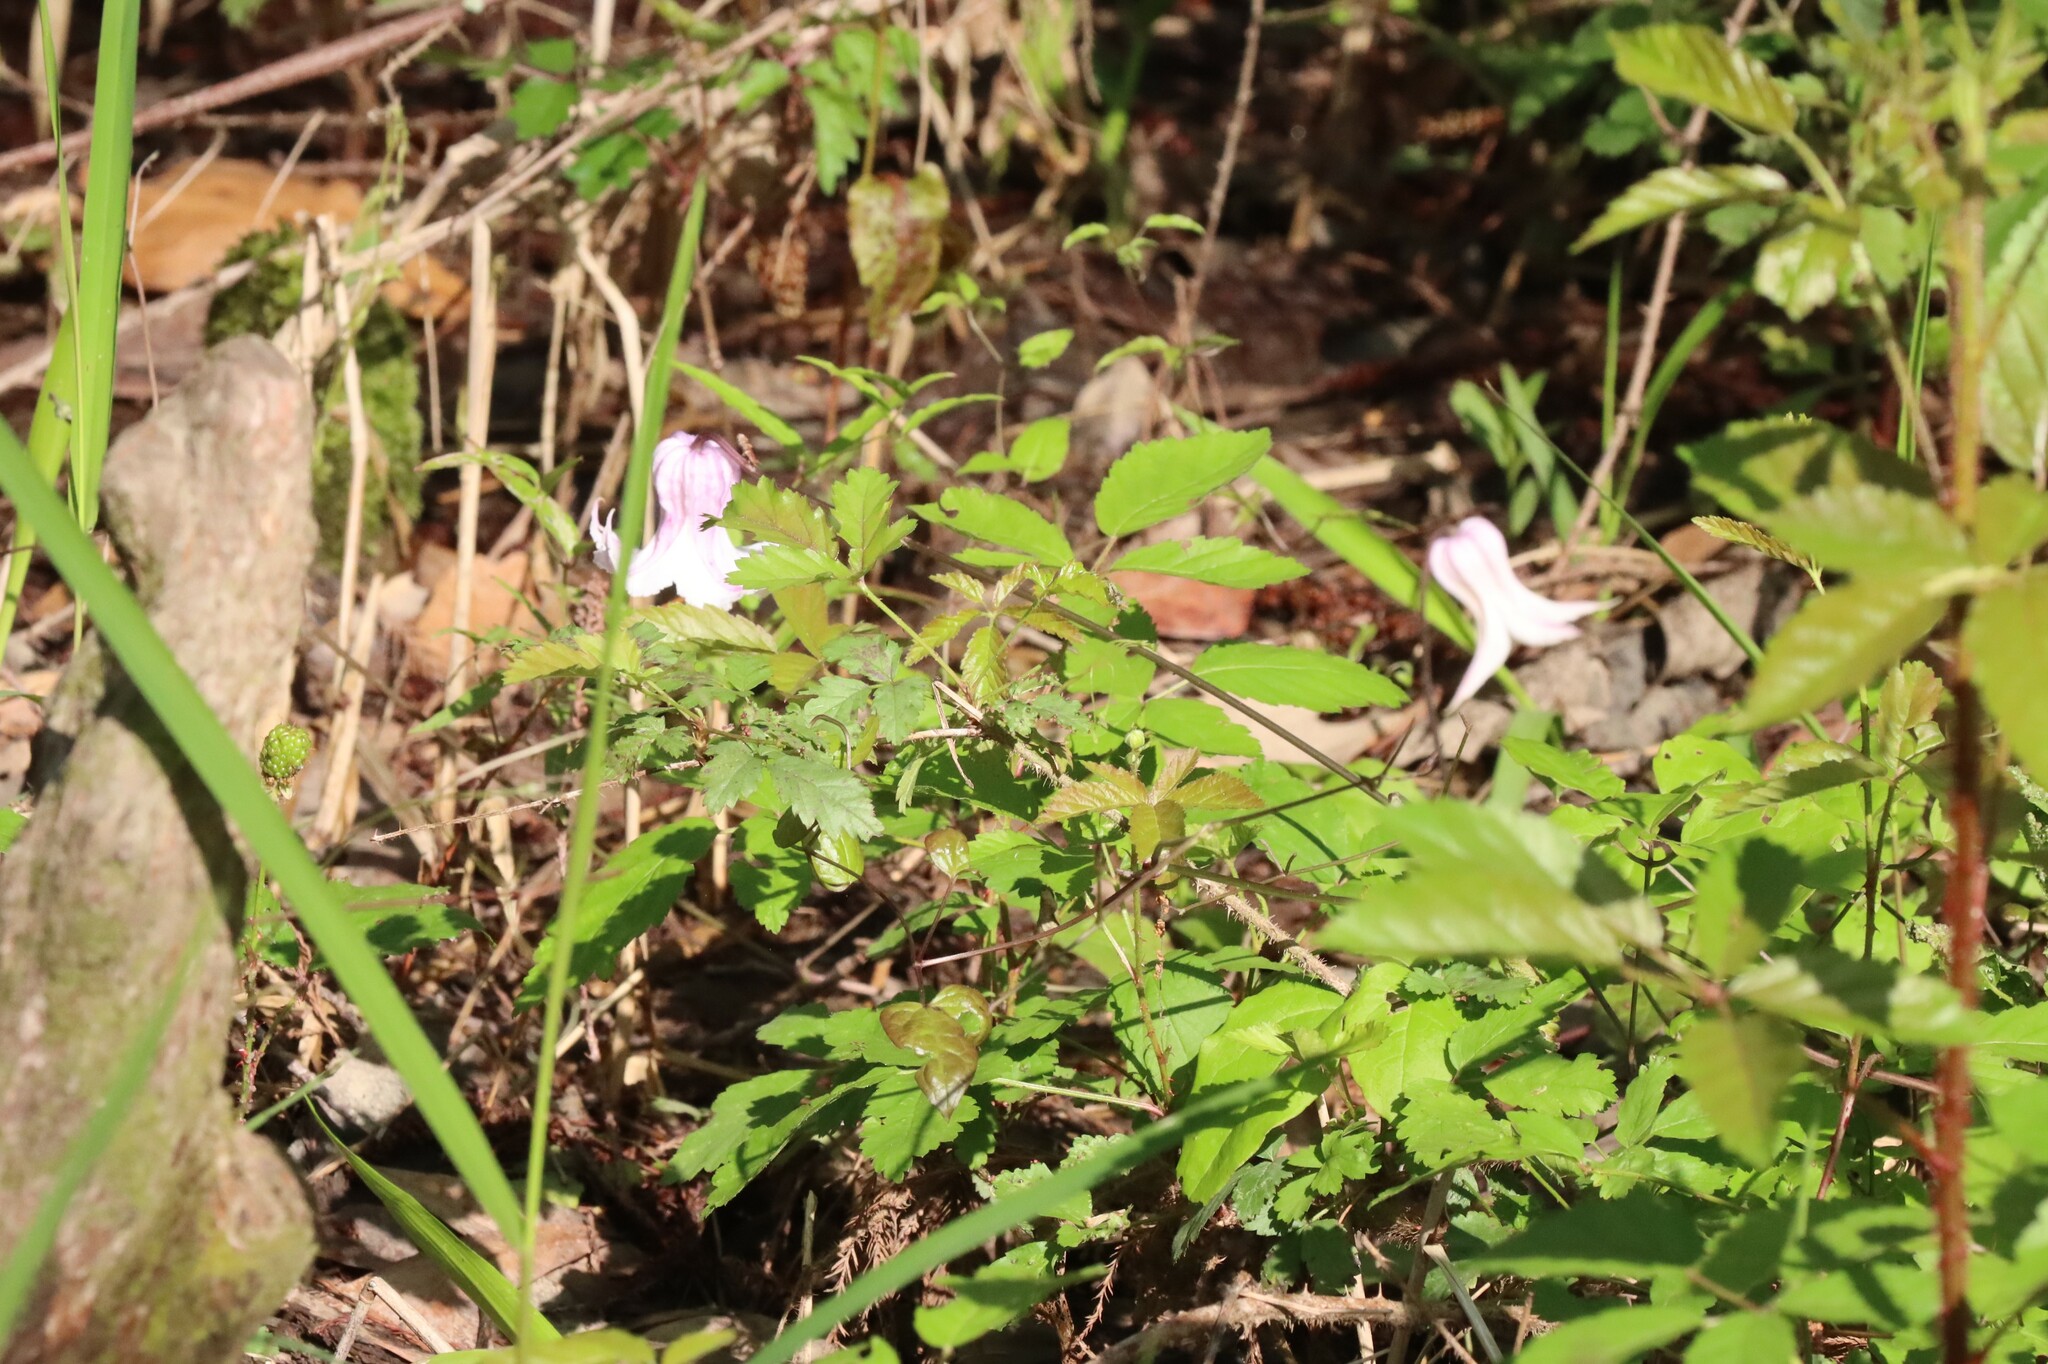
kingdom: Plantae
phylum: Tracheophyta
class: Magnoliopsida
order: Ranunculales
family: Ranunculaceae
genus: Clematis
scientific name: Clematis crispa
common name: Curly clematis
